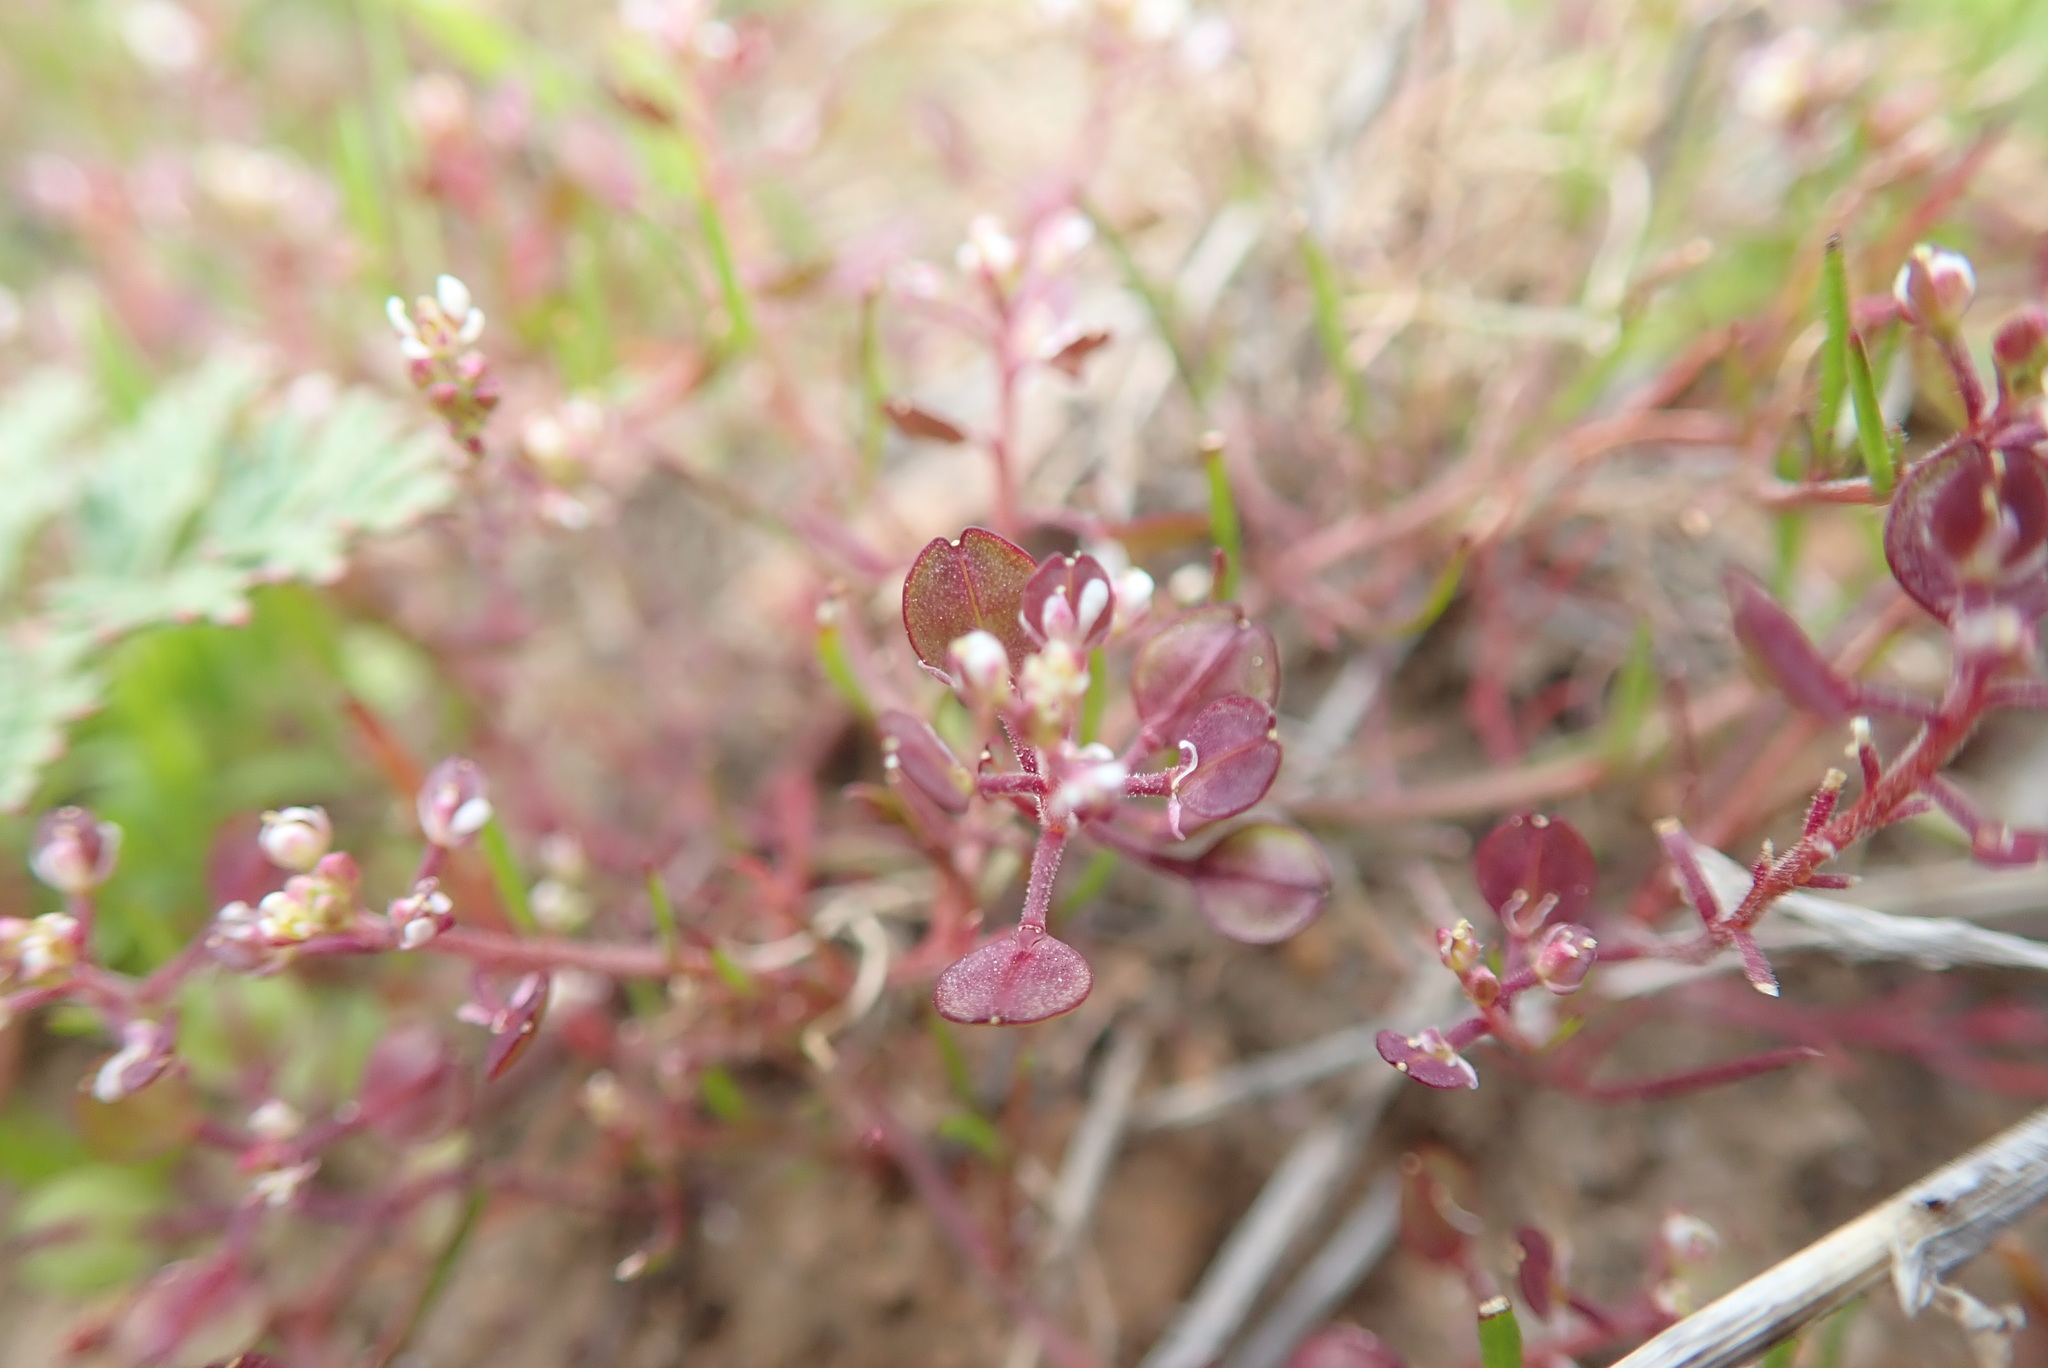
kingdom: Plantae
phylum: Tracheophyta
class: Magnoliopsida
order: Brassicales
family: Brassicaceae
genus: Lepidium
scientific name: Lepidium nitidum
